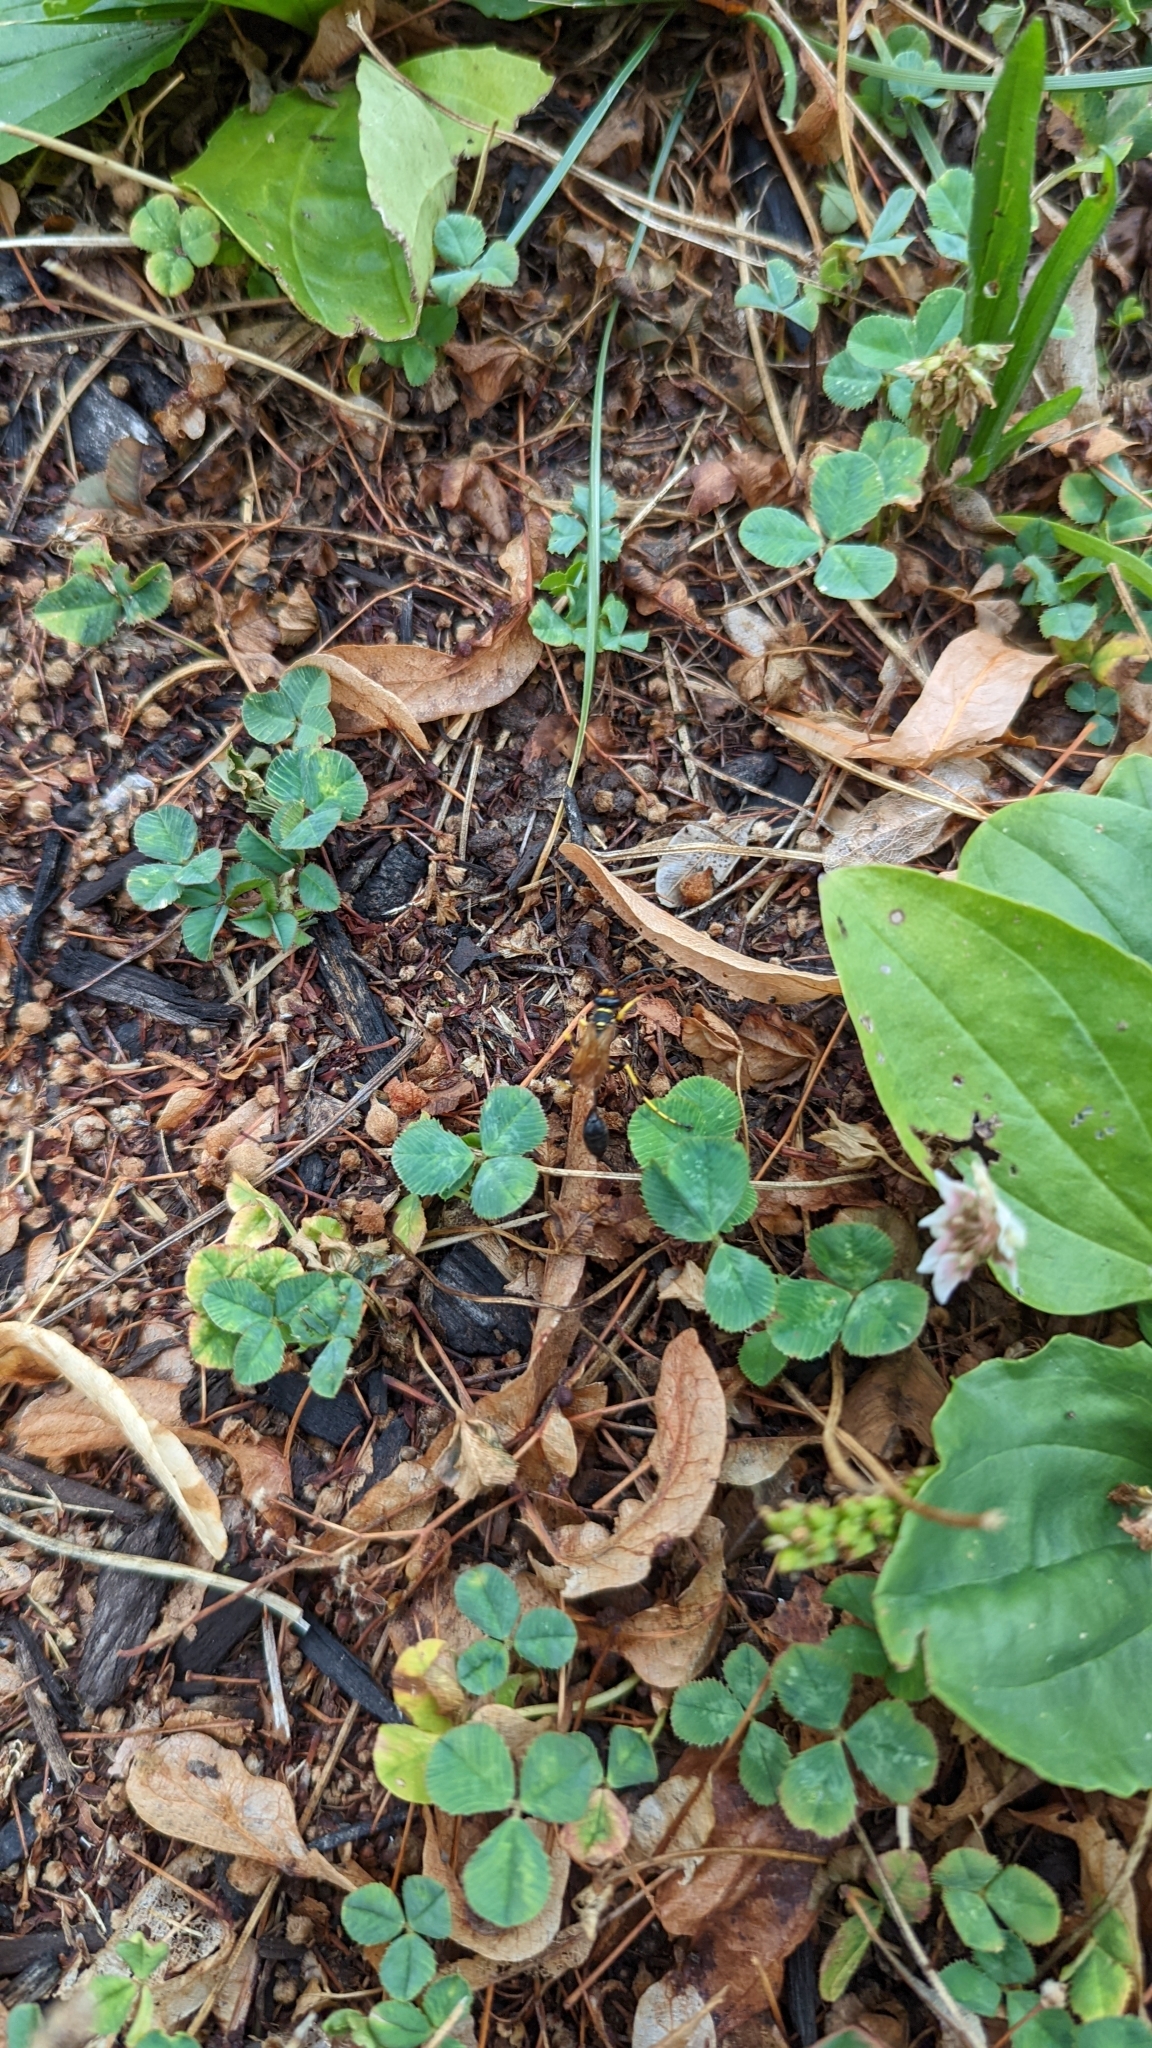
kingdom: Animalia
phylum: Arthropoda
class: Insecta
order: Hymenoptera
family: Sphecidae
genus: Sceliphron
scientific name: Sceliphron caementarium
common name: Mud dauber
